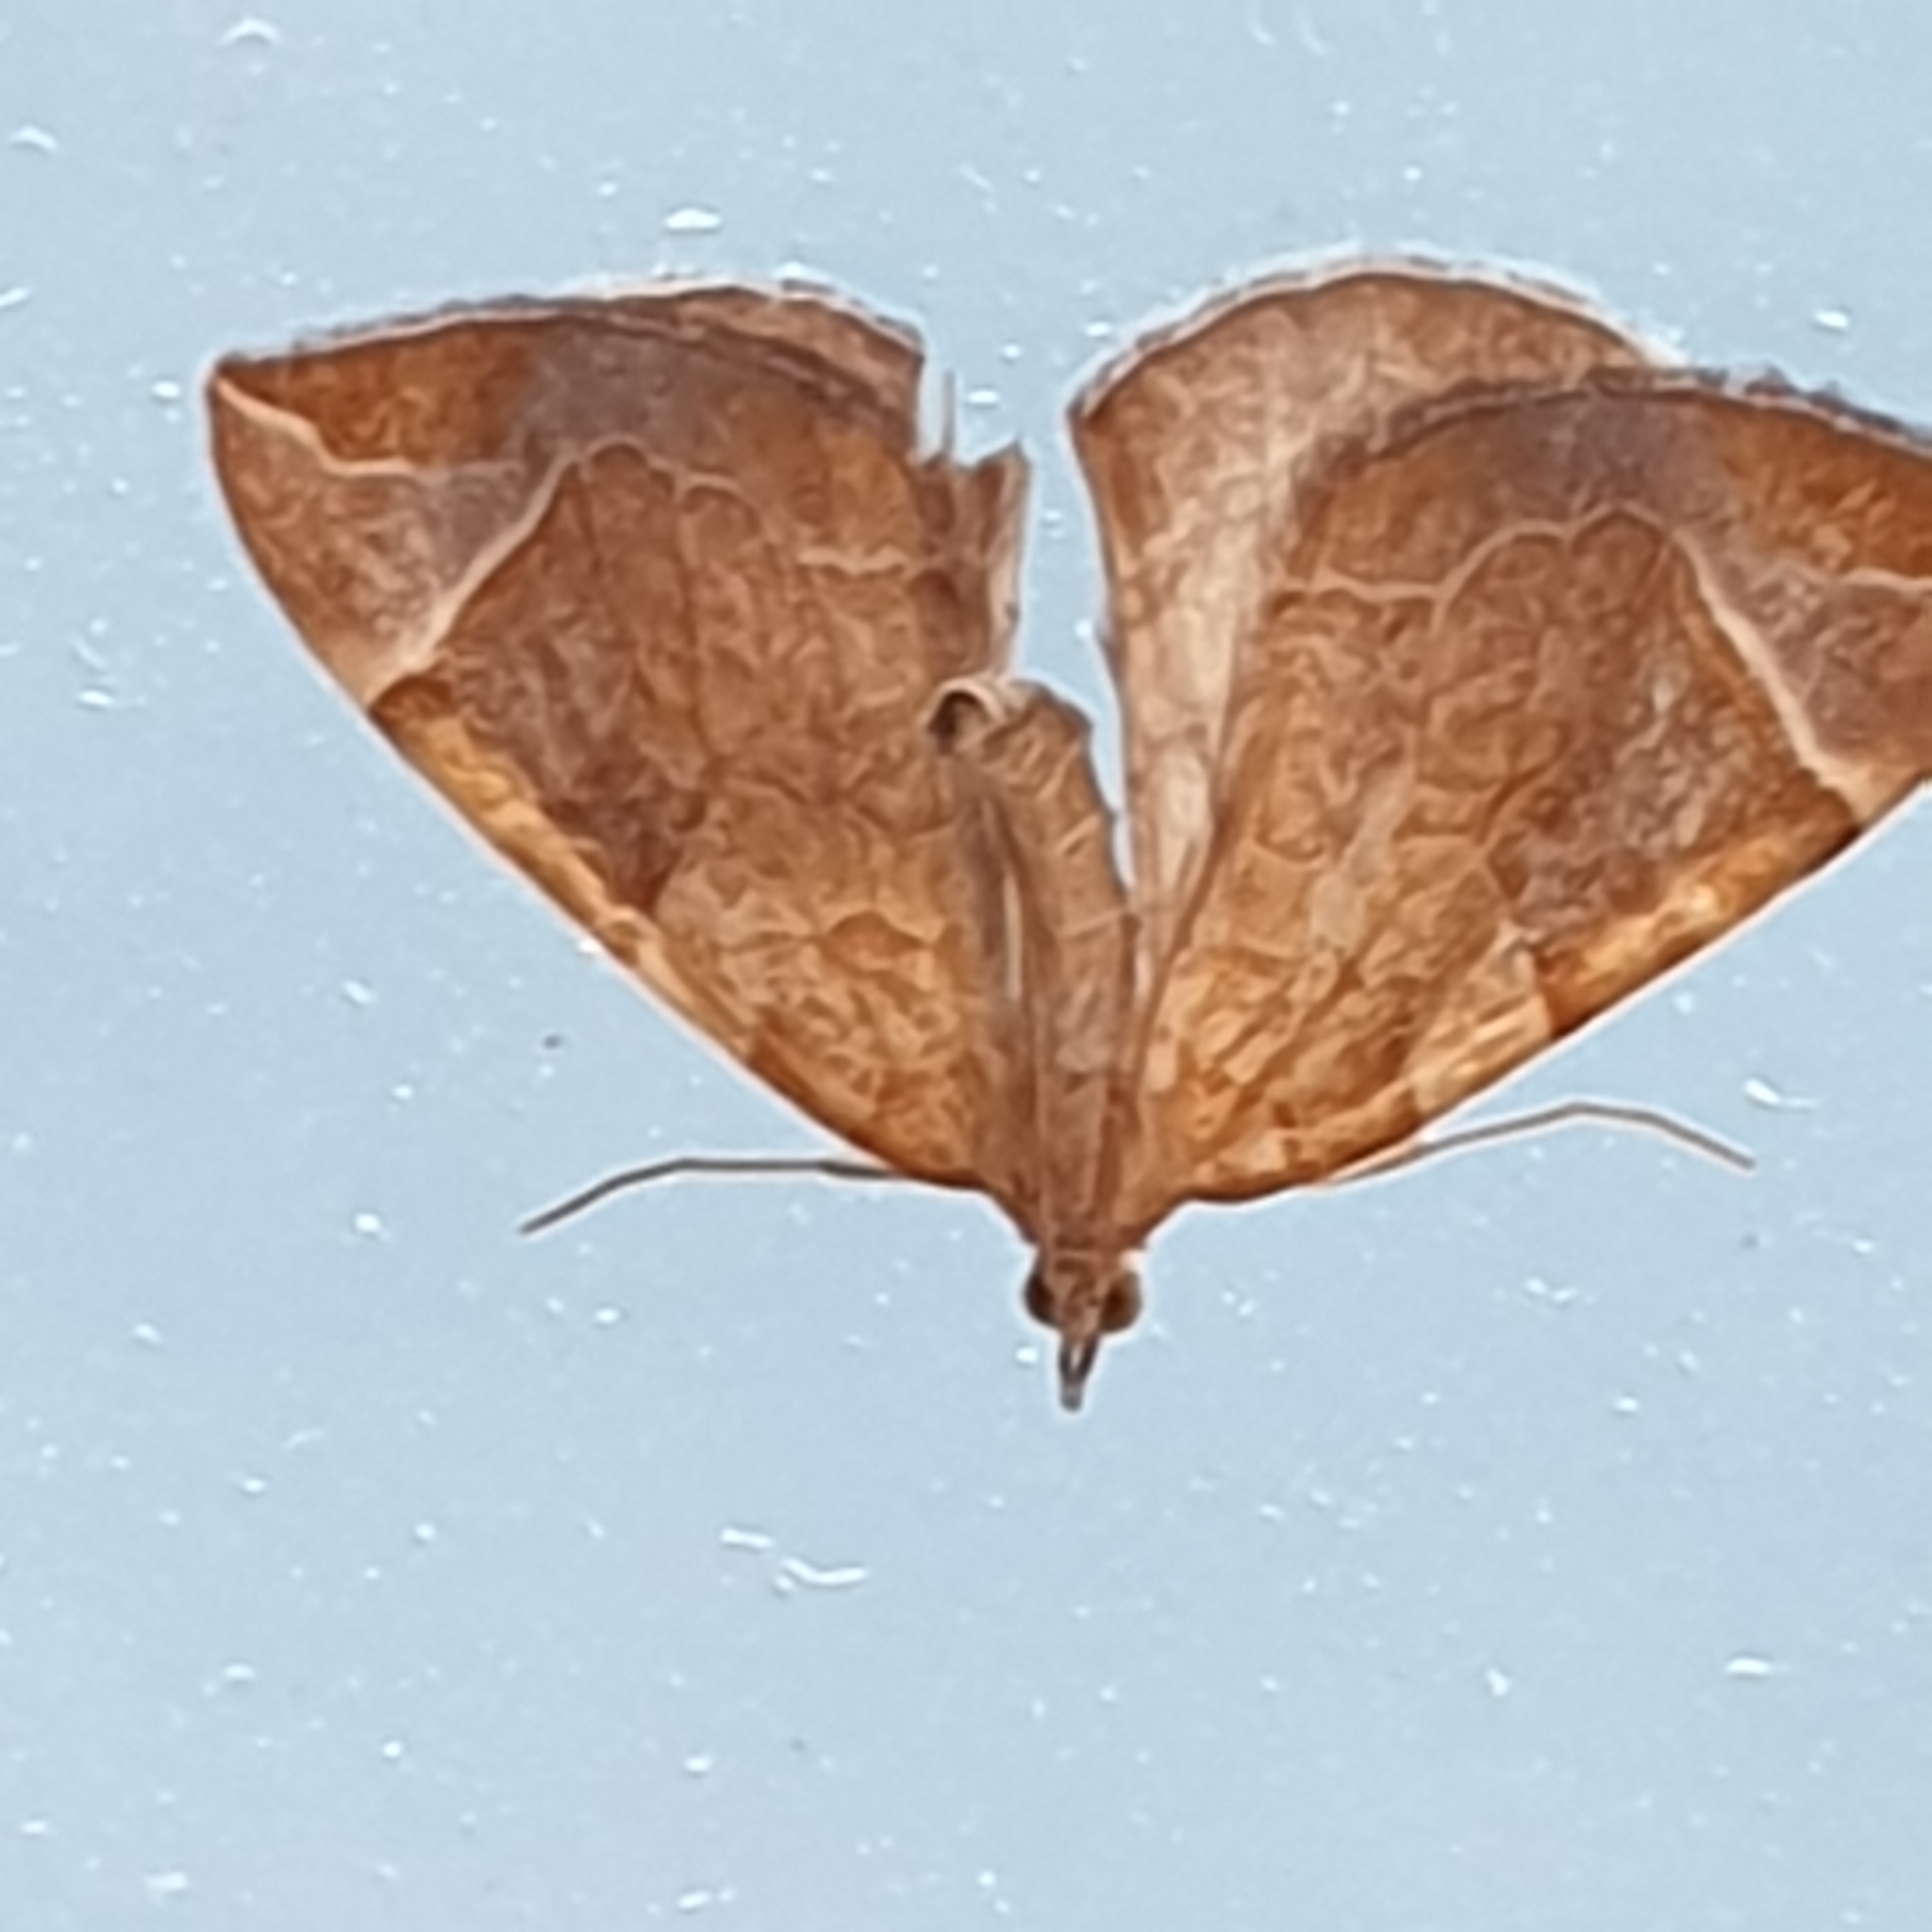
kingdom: Animalia
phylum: Arthropoda
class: Insecta
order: Lepidoptera
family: Geometridae
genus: Eulithis
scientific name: Eulithis testata
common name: Chevron
